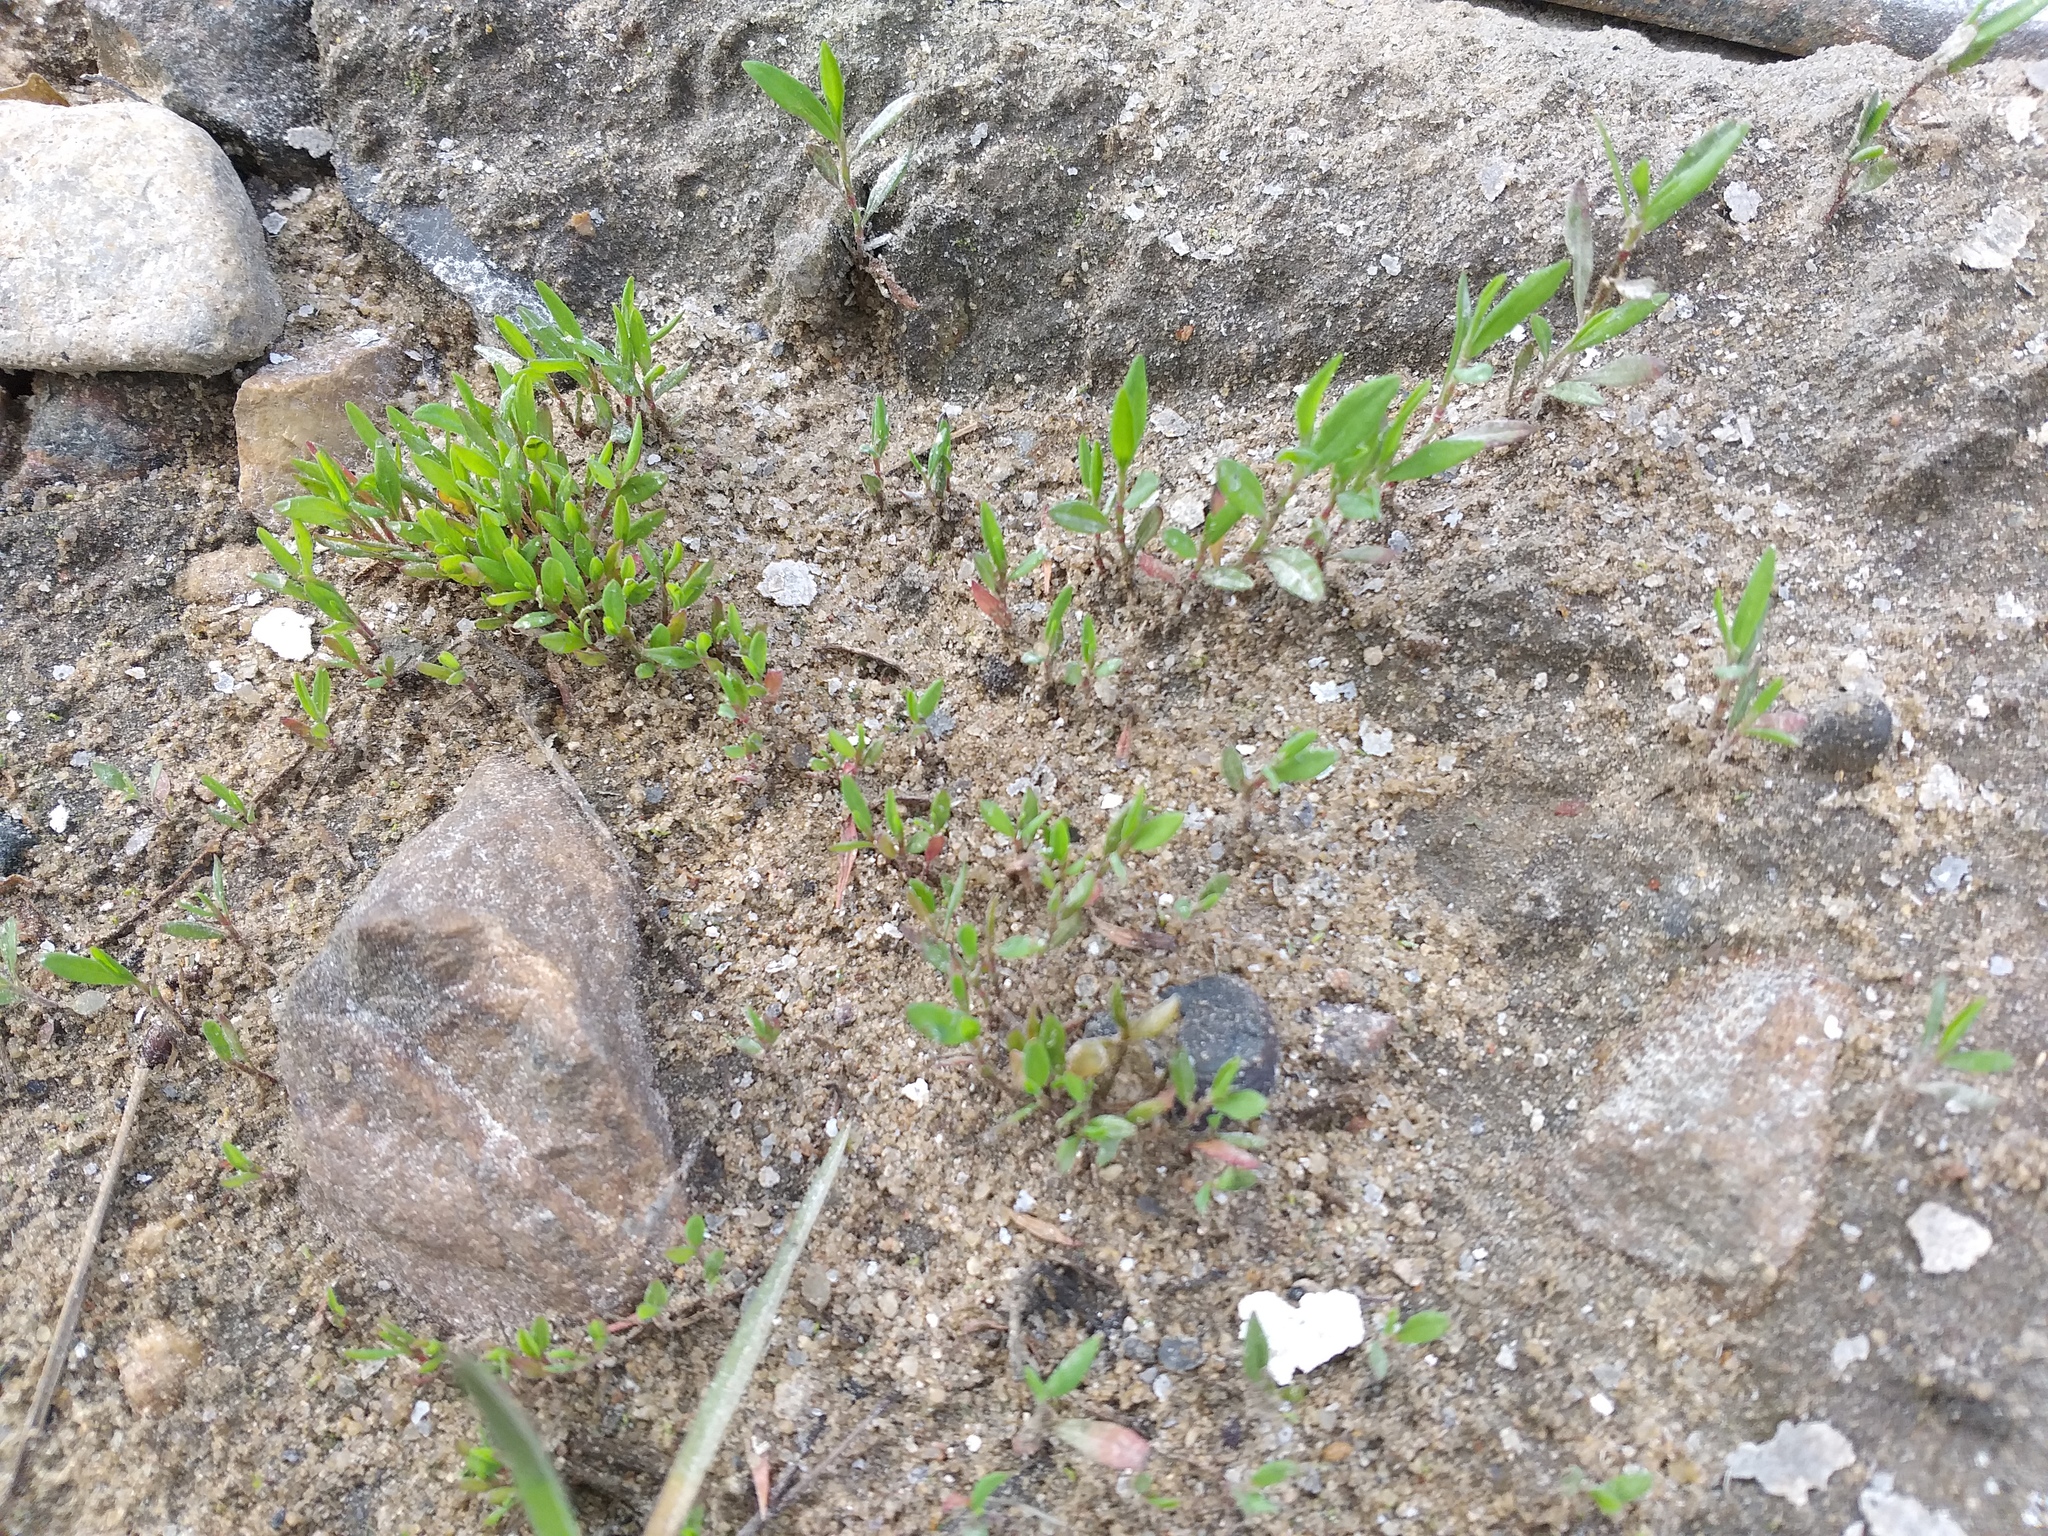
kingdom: Plantae
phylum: Tracheophyta
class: Magnoliopsida
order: Caryophyllales
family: Polygonaceae
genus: Polygonum
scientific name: Polygonum
